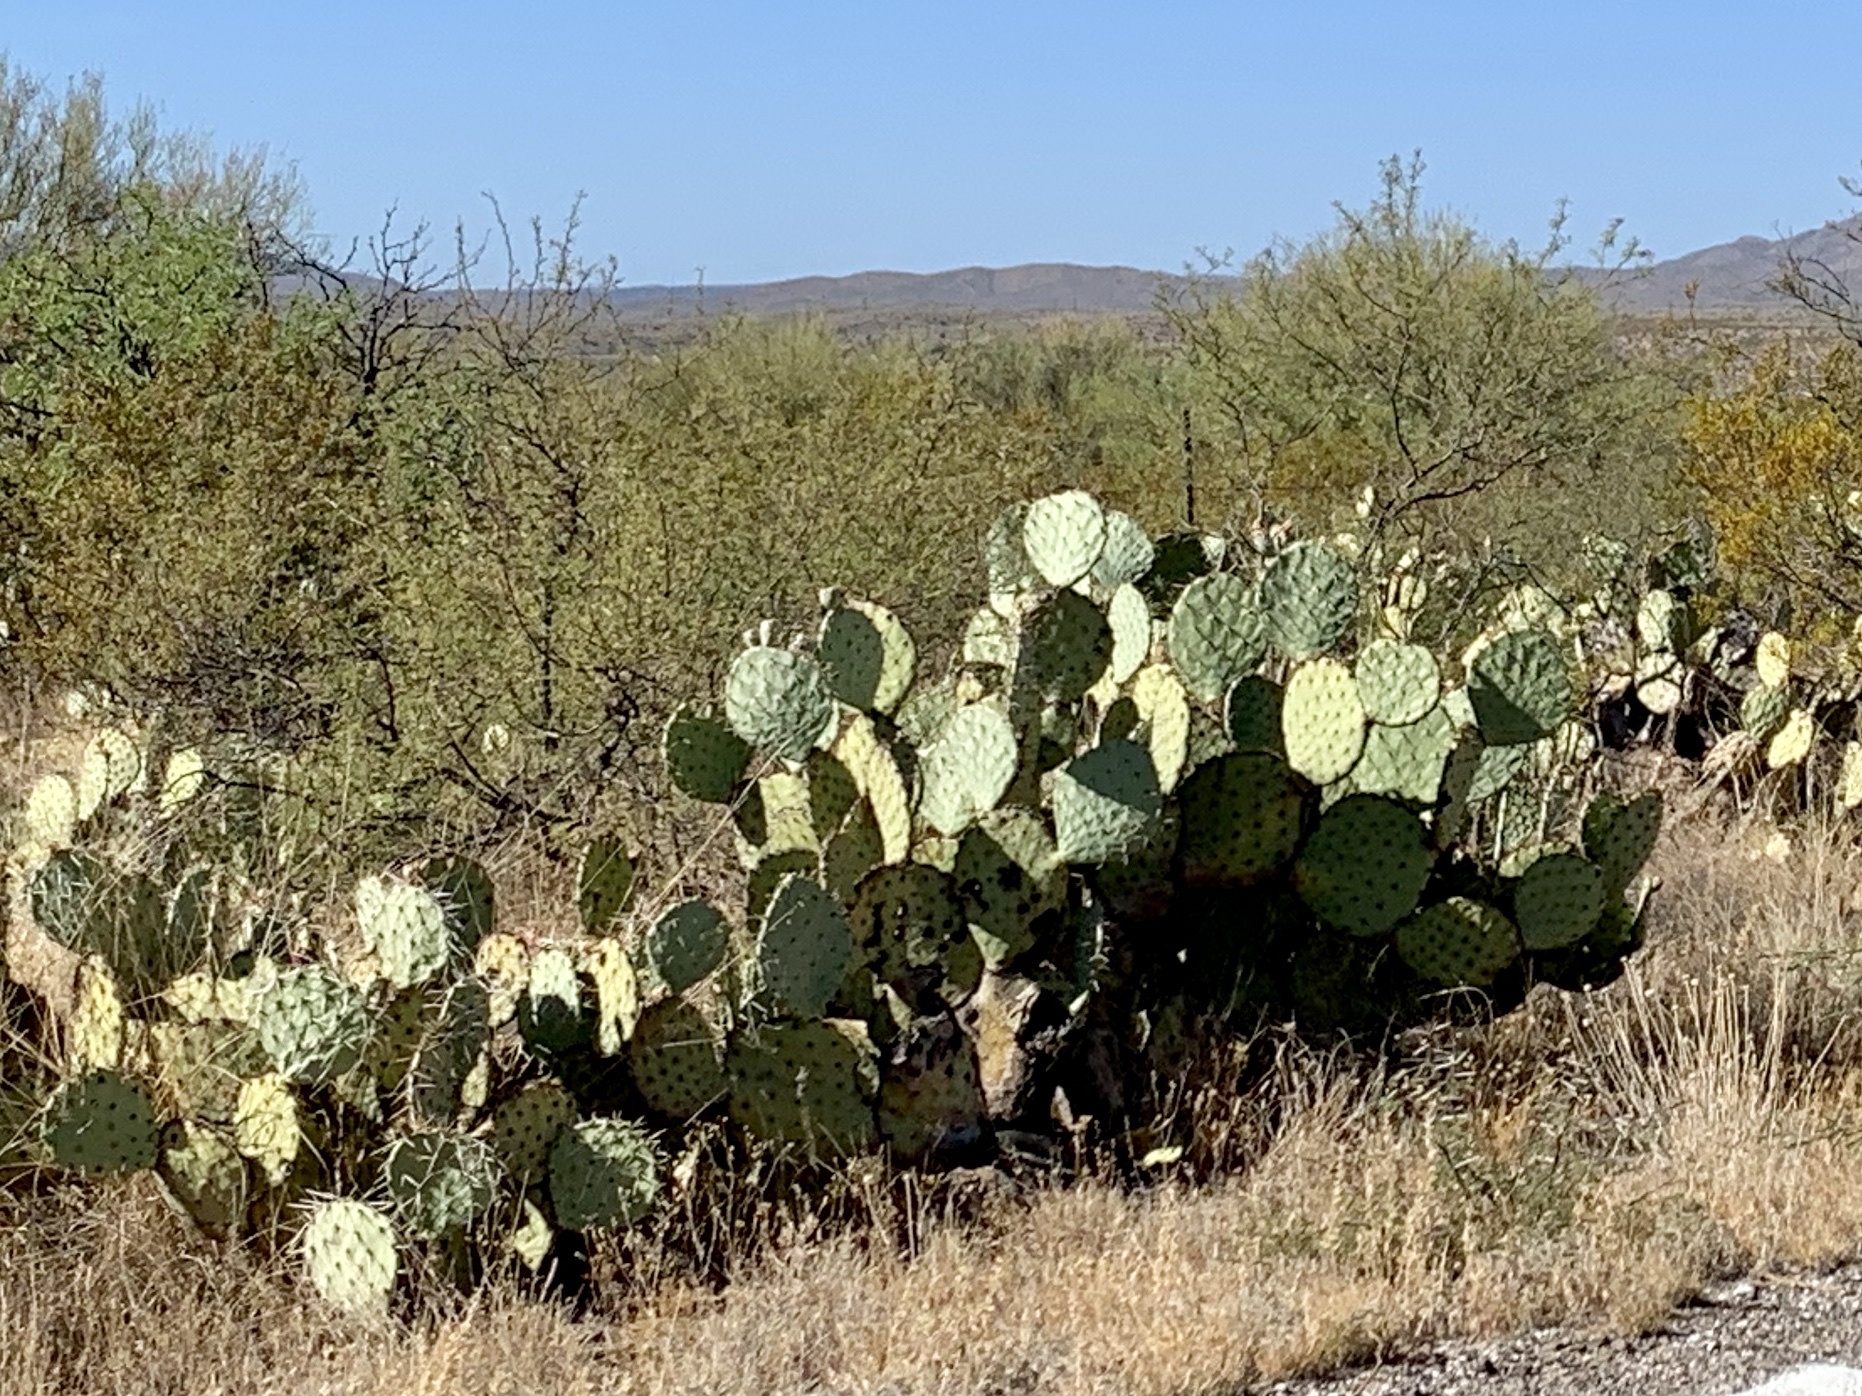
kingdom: Plantae
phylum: Tracheophyta
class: Magnoliopsida
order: Caryophyllales
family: Cactaceae
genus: Opuntia
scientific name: Opuntia engelmannii
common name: Cactus-apple
